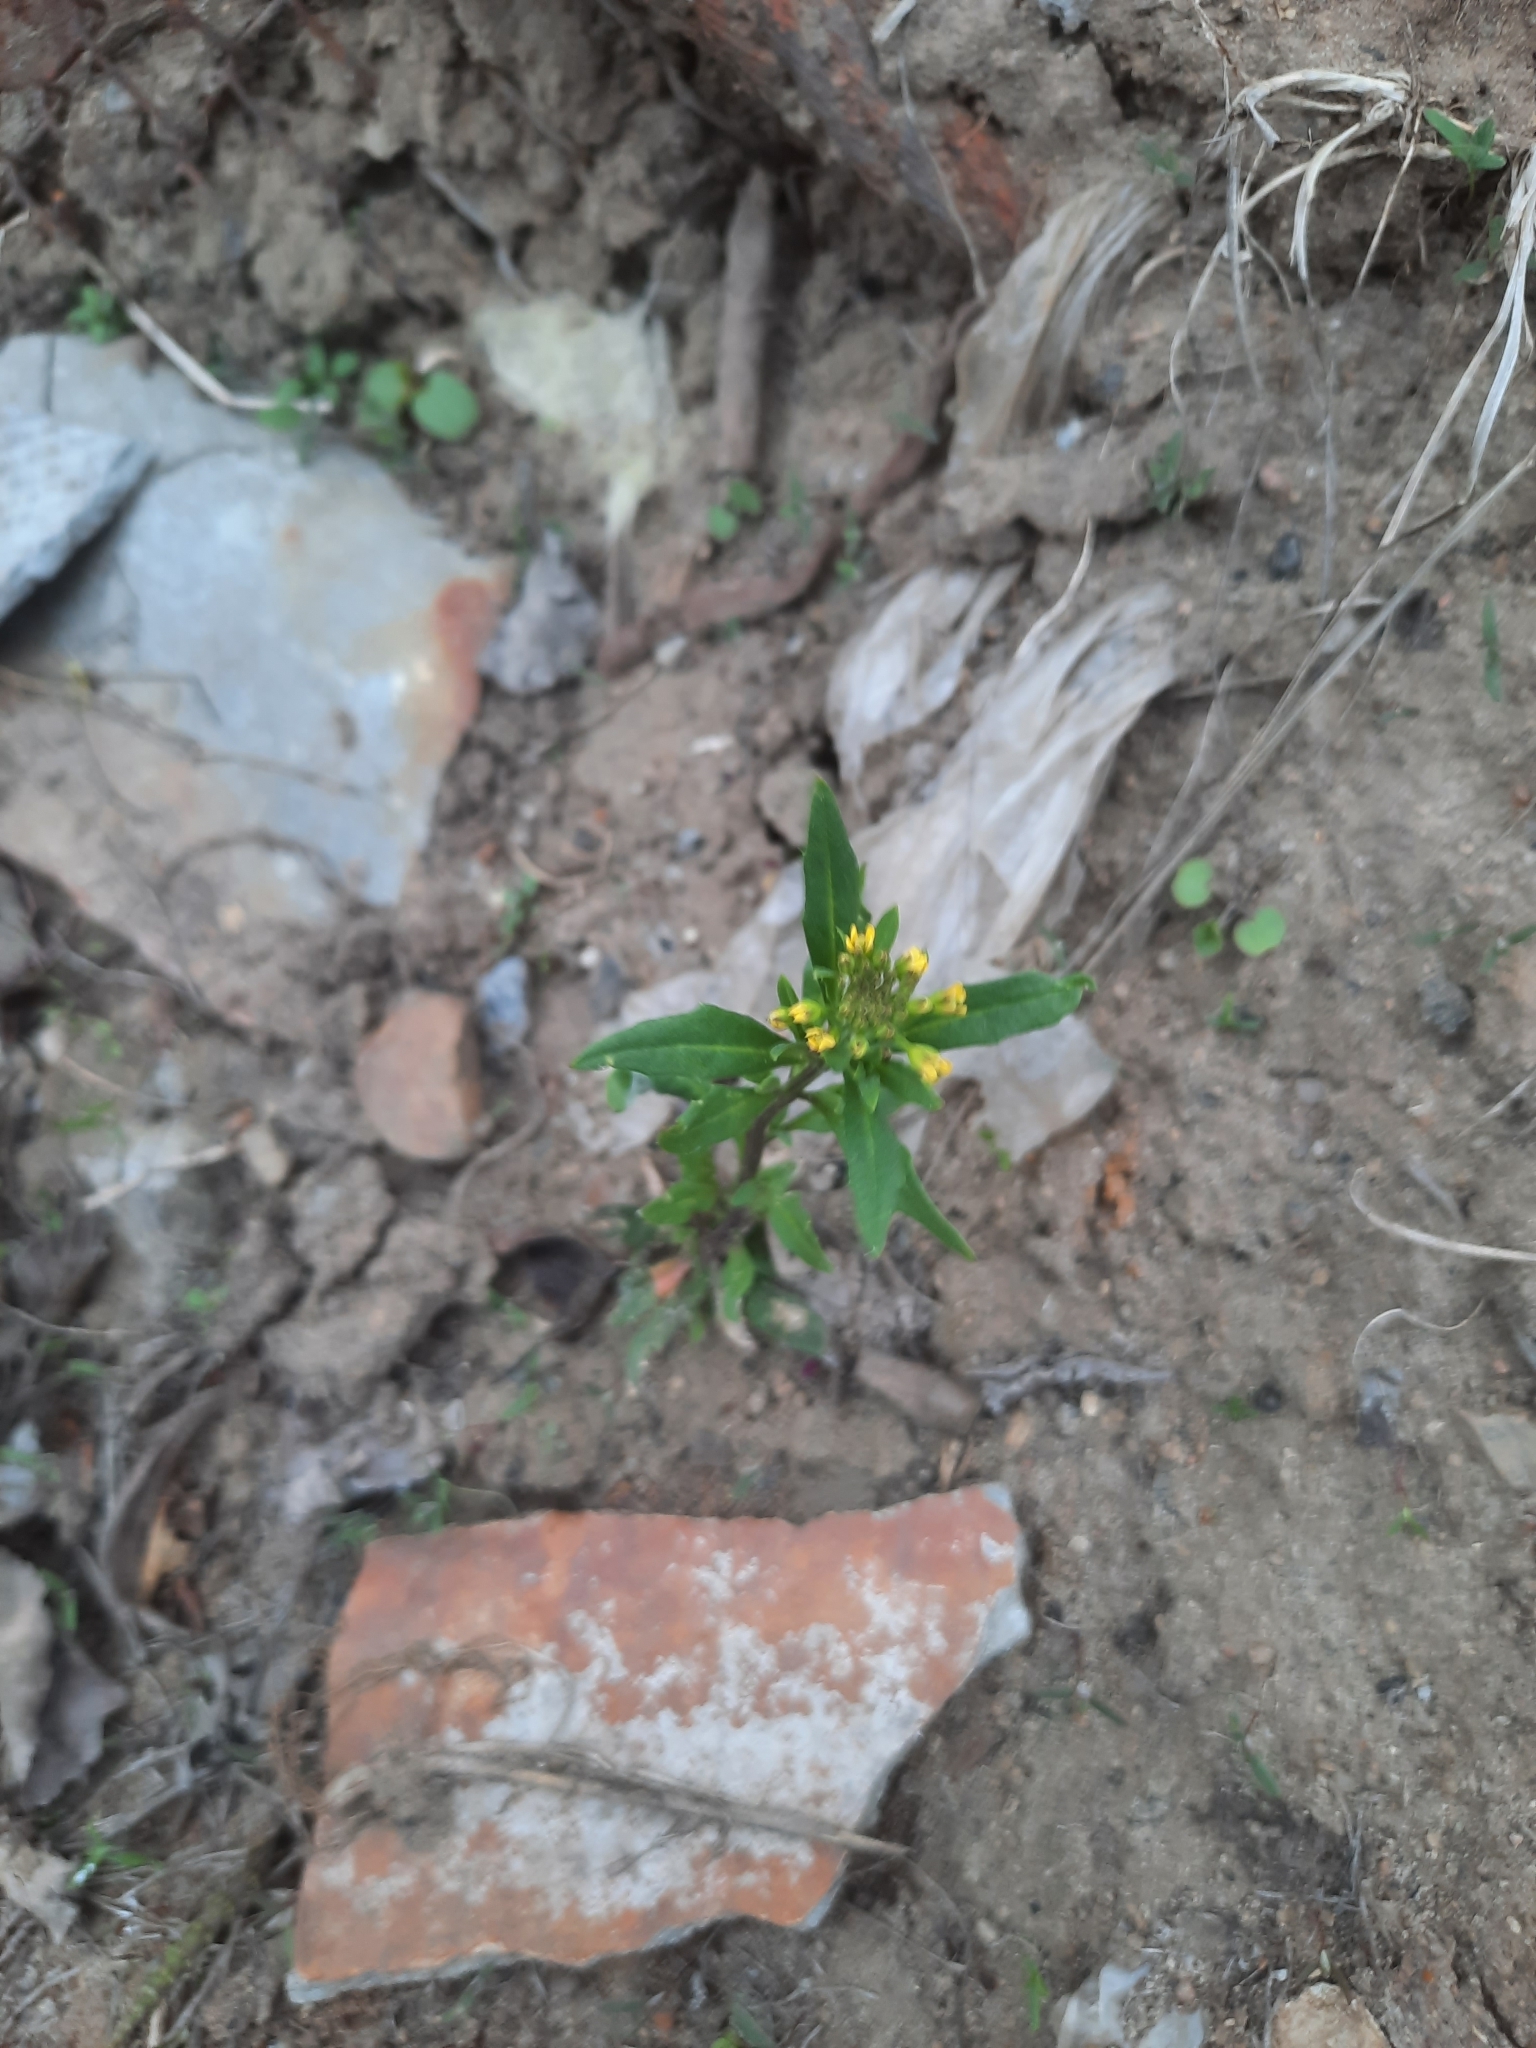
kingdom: Plantae
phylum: Tracheophyta
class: Magnoliopsida
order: Brassicales
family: Brassicaceae
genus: Erysimum
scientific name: Erysimum cheiranthoides
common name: Treacle mustard
